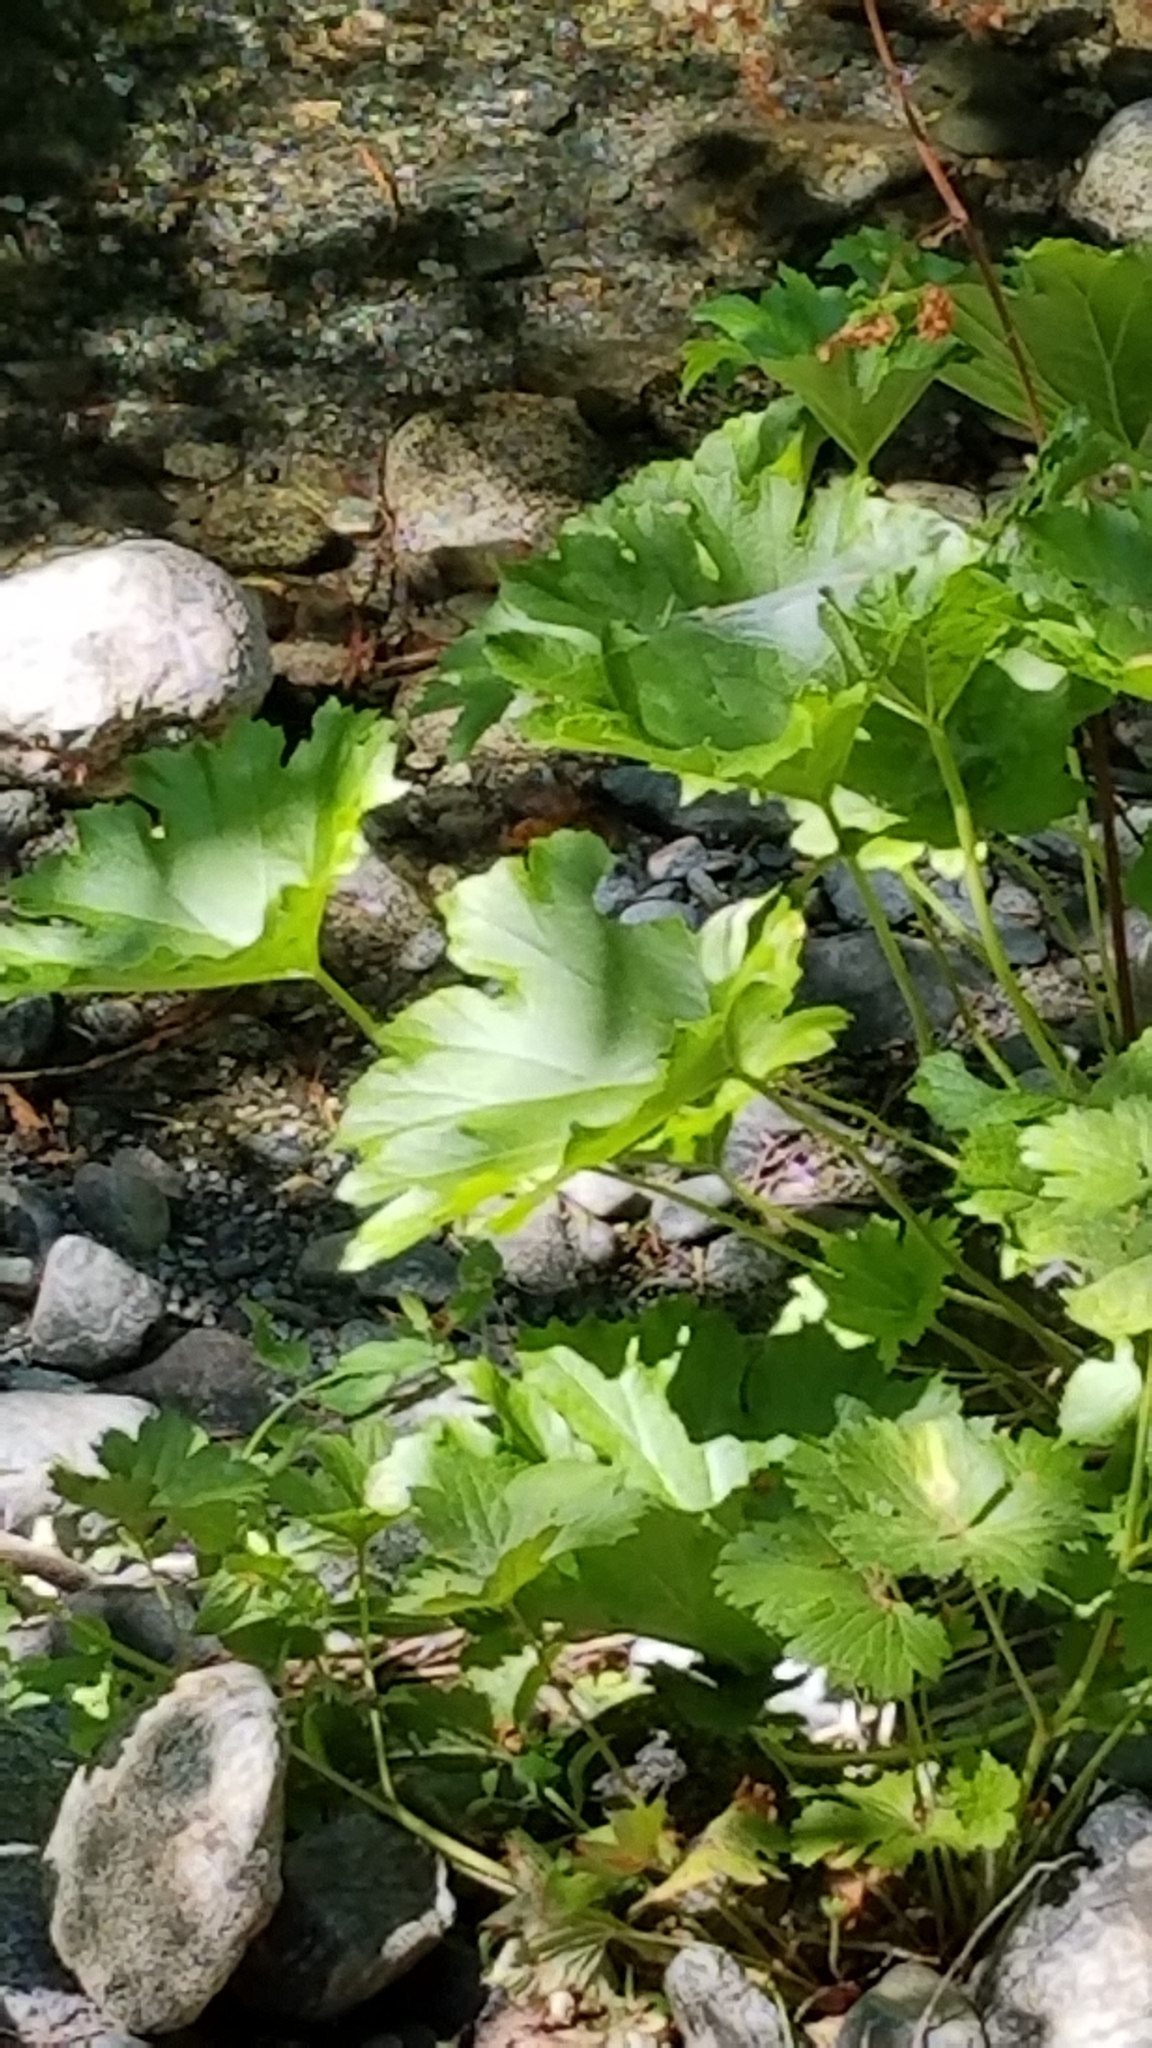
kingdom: Plantae
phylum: Tracheophyta
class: Magnoliopsida
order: Saxifragales
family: Saxifragaceae
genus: Darmera
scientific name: Darmera peltata
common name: Indian-rhubarb
